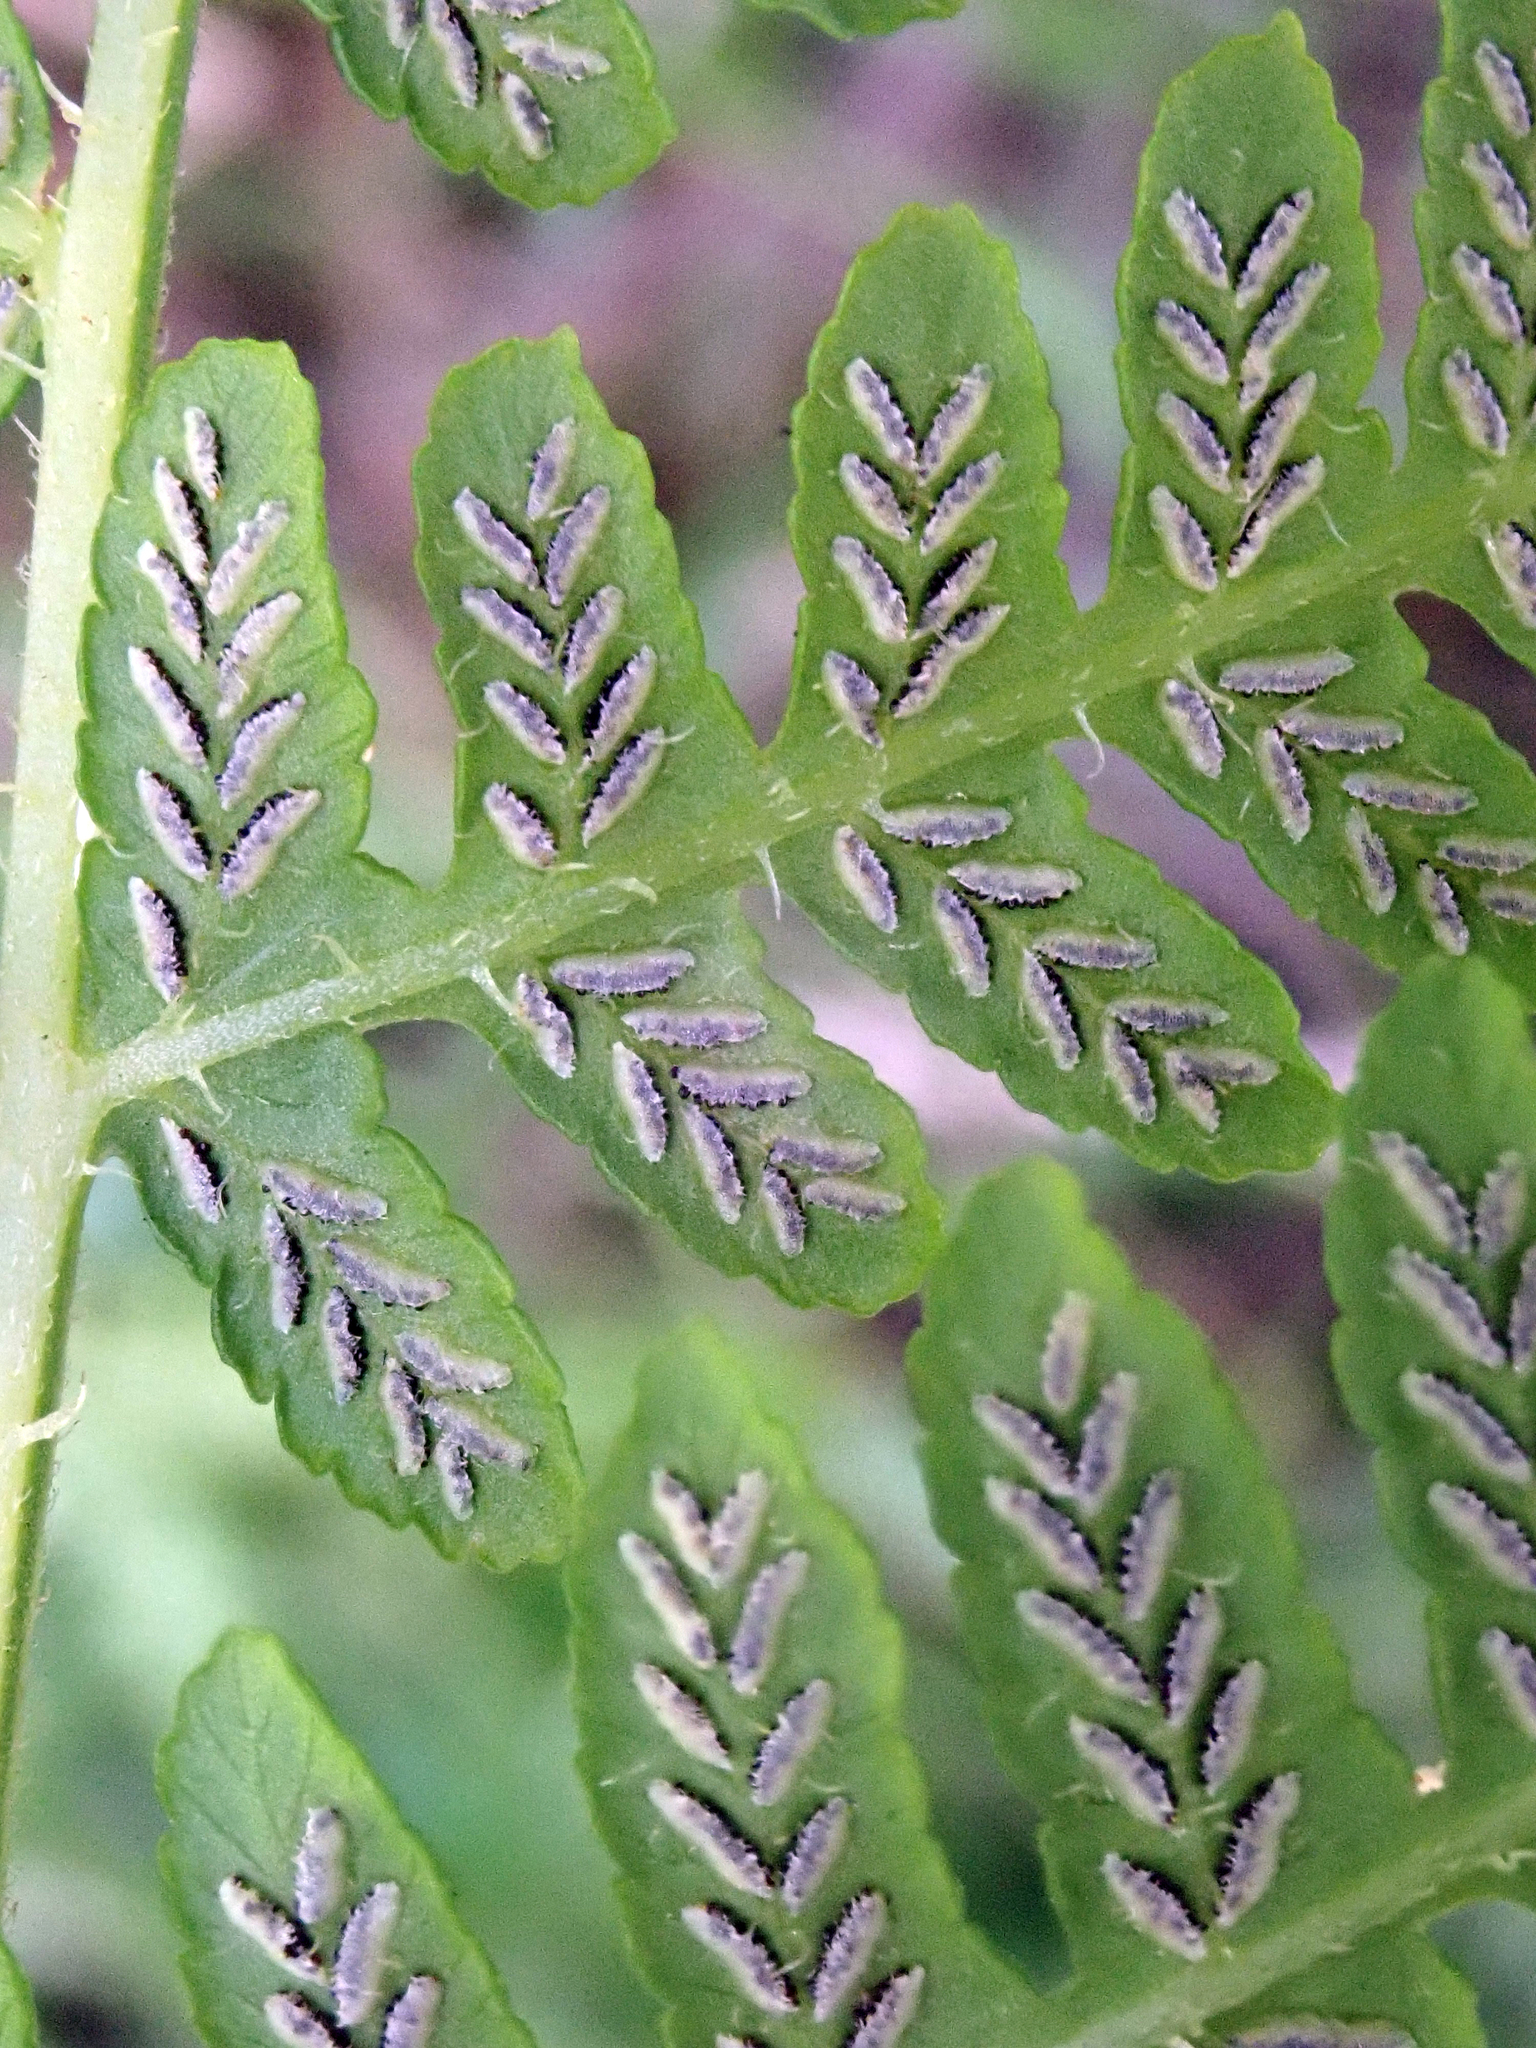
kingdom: Plantae
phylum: Tracheophyta
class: Polypodiopsida
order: Polypodiales
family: Athyriaceae
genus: Diplazium
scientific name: Diplazium congruum
